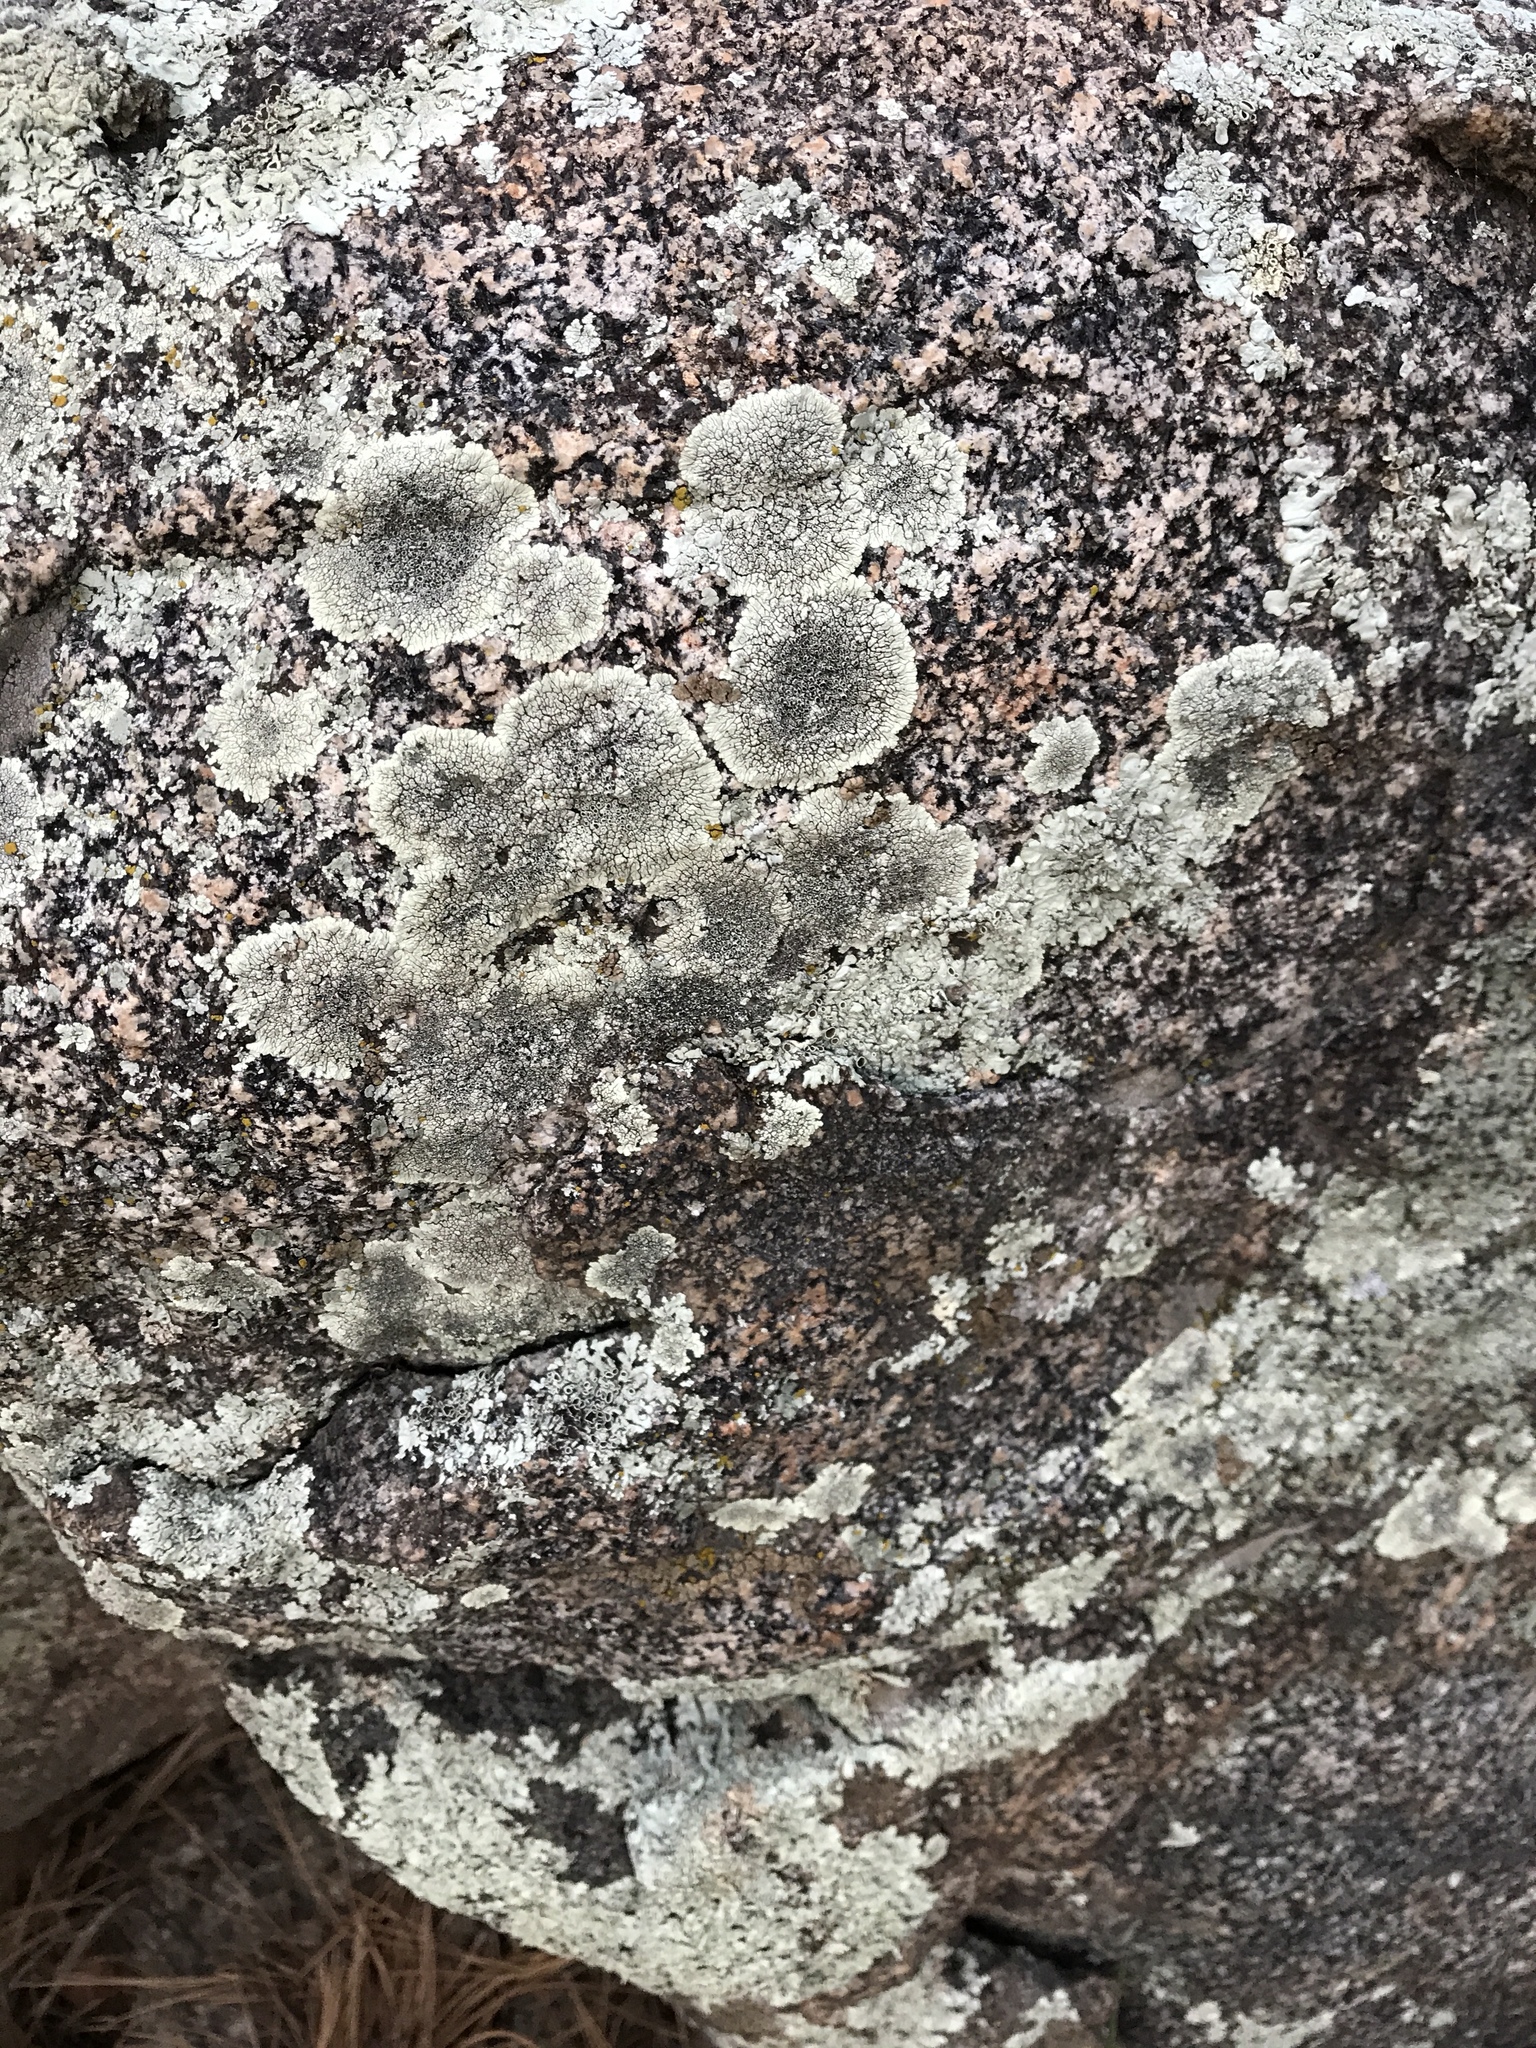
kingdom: Fungi
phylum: Ascomycota
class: Lecanoromycetes
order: Caliciales
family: Caliciaceae
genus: Dimelaena
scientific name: Dimelaena oreina
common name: Golden moonglow lichen
